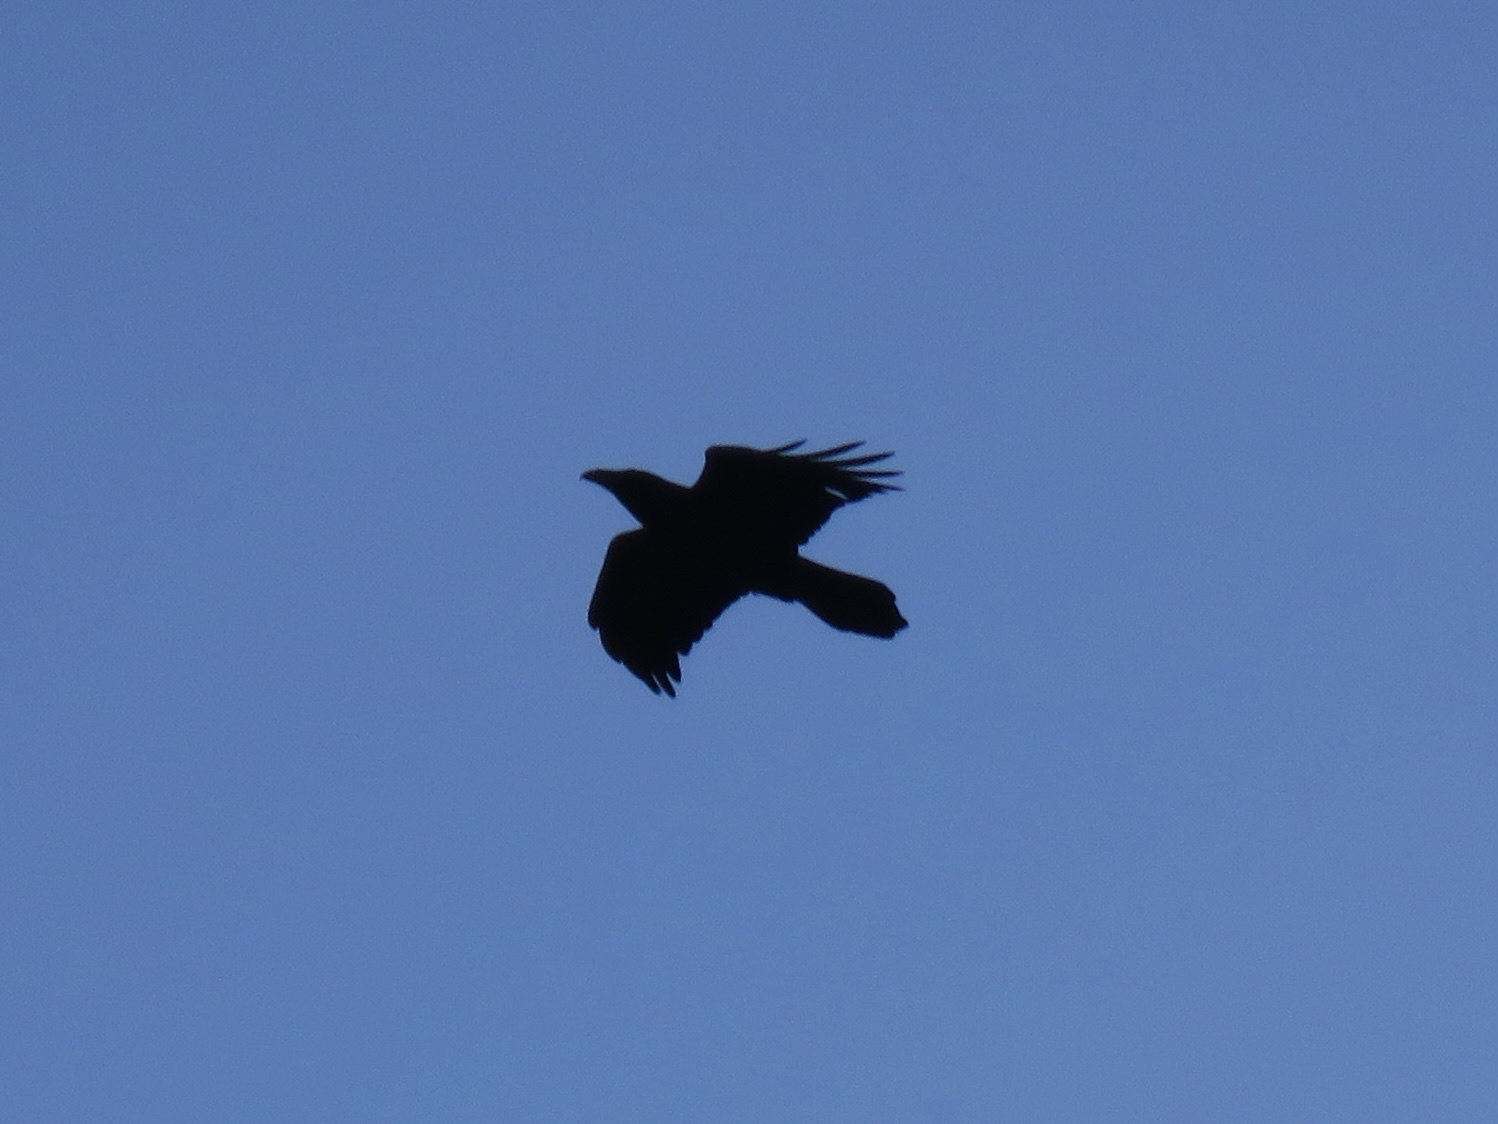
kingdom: Animalia
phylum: Chordata
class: Aves
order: Passeriformes
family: Corvidae
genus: Corvus
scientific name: Corvus corax
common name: Common raven
